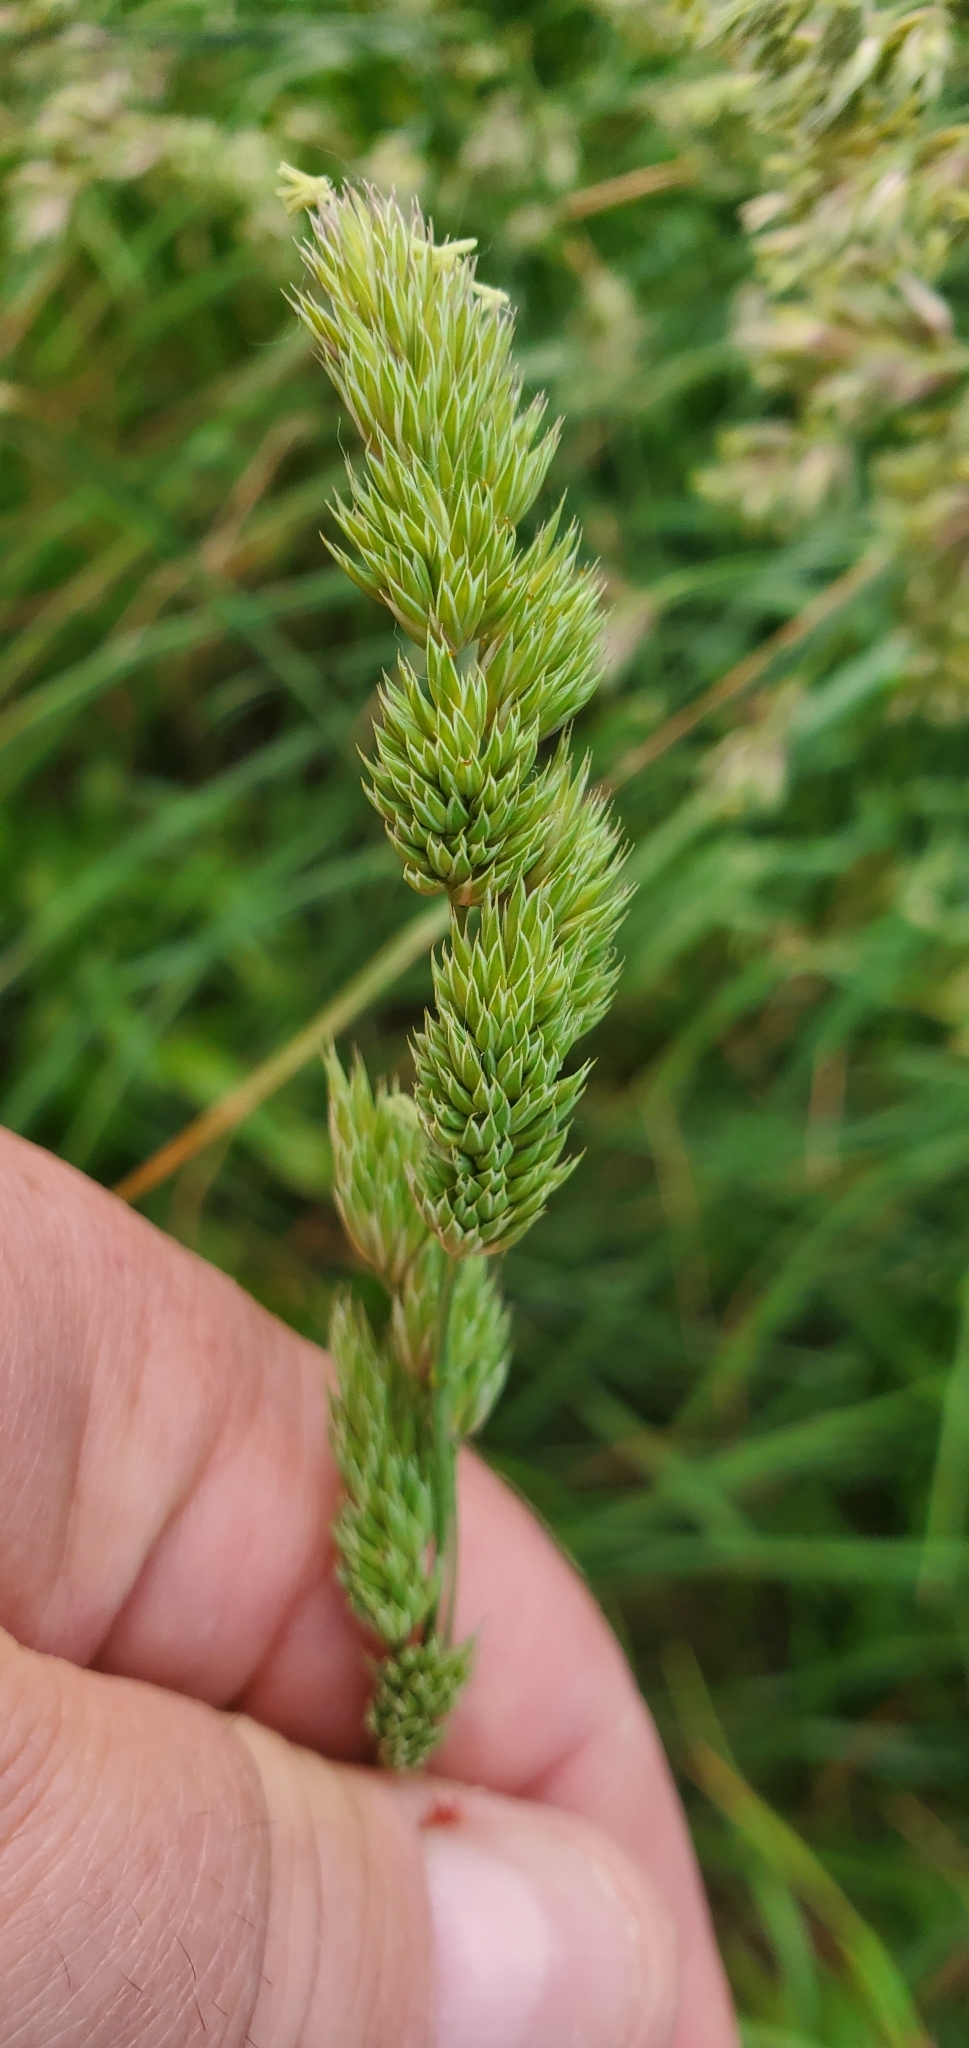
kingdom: Plantae
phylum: Tracheophyta
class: Liliopsida
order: Poales
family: Poaceae
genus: Dactylis
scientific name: Dactylis glomerata
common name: Orchardgrass
